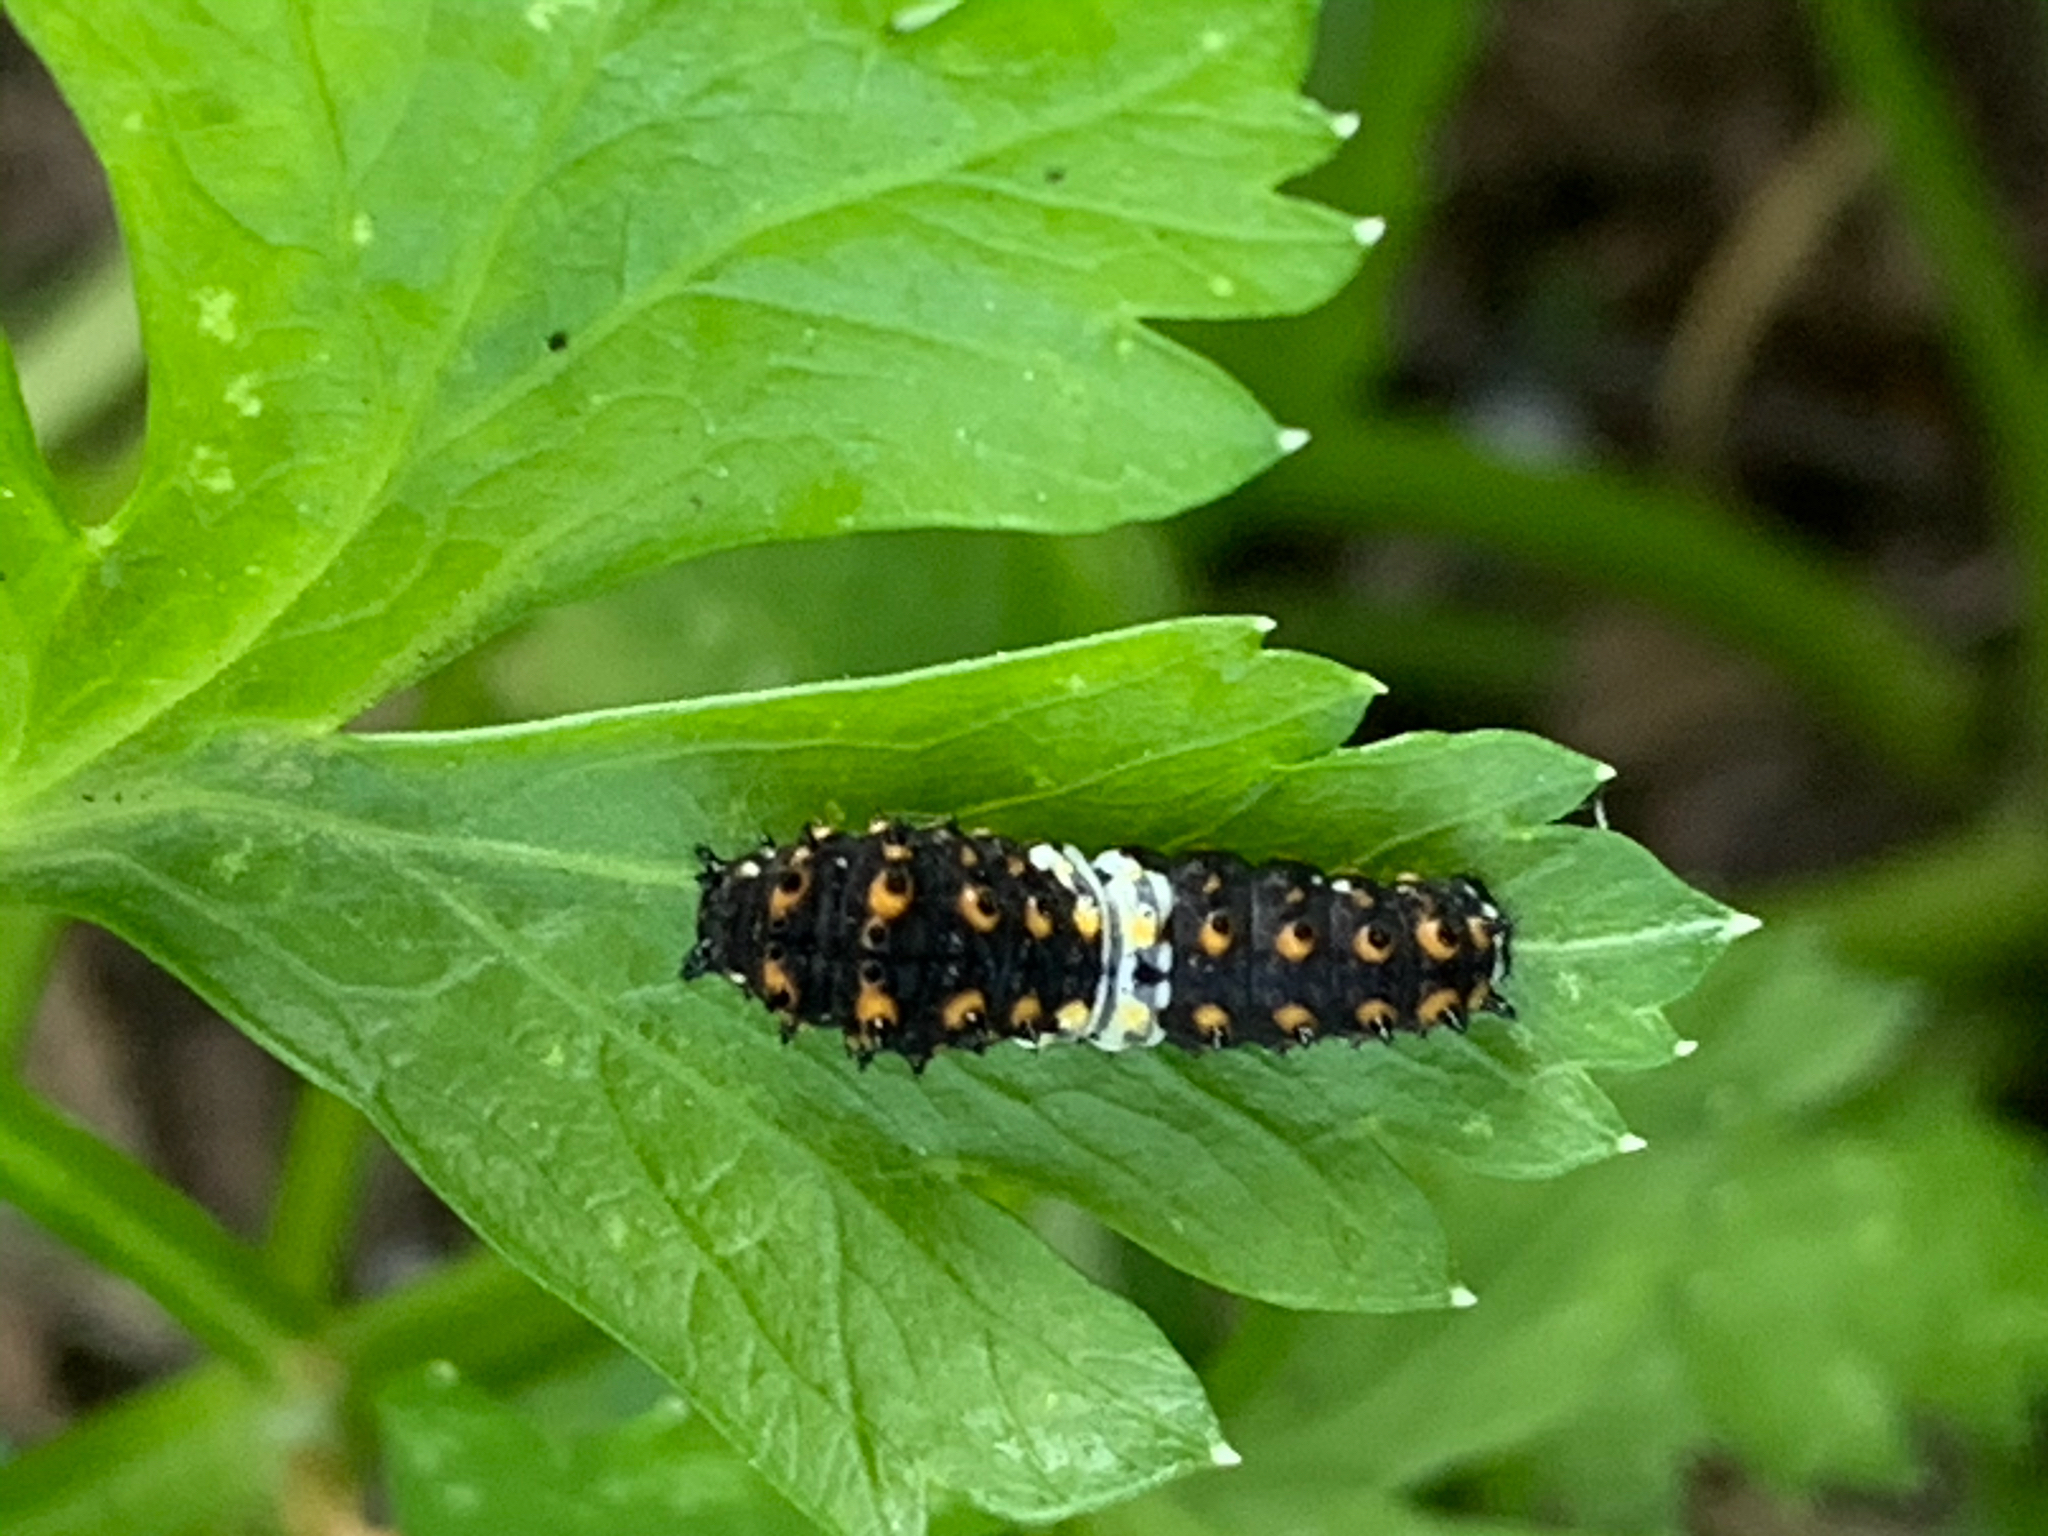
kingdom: Animalia
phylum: Arthropoda
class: Insecta
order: Lepidoptera
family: Papilionidae
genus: Papilio
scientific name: Papilio polyxenes
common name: Black swallowtail
